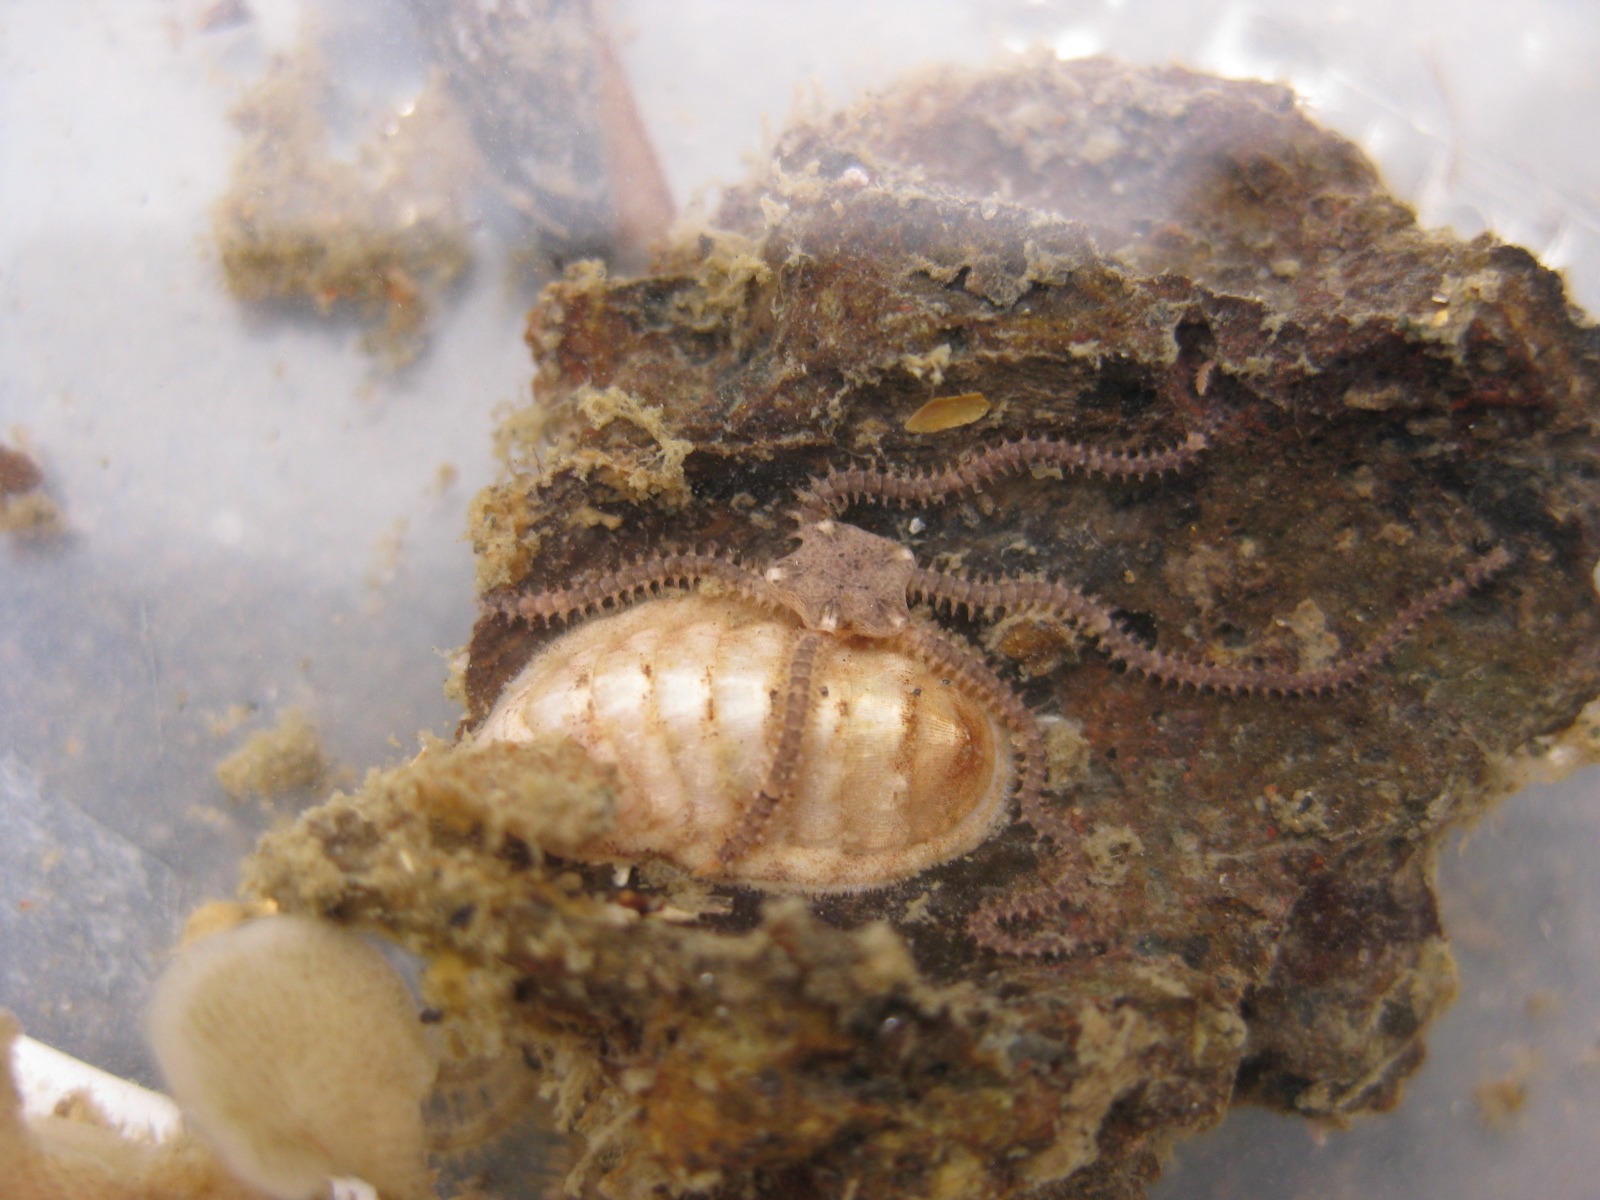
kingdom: Animalia
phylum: Mollusca
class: Polyplacophora
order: Lepidopleurida
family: Leptochitonidae
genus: Leptochiton
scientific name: Leptochiton inquinatus
